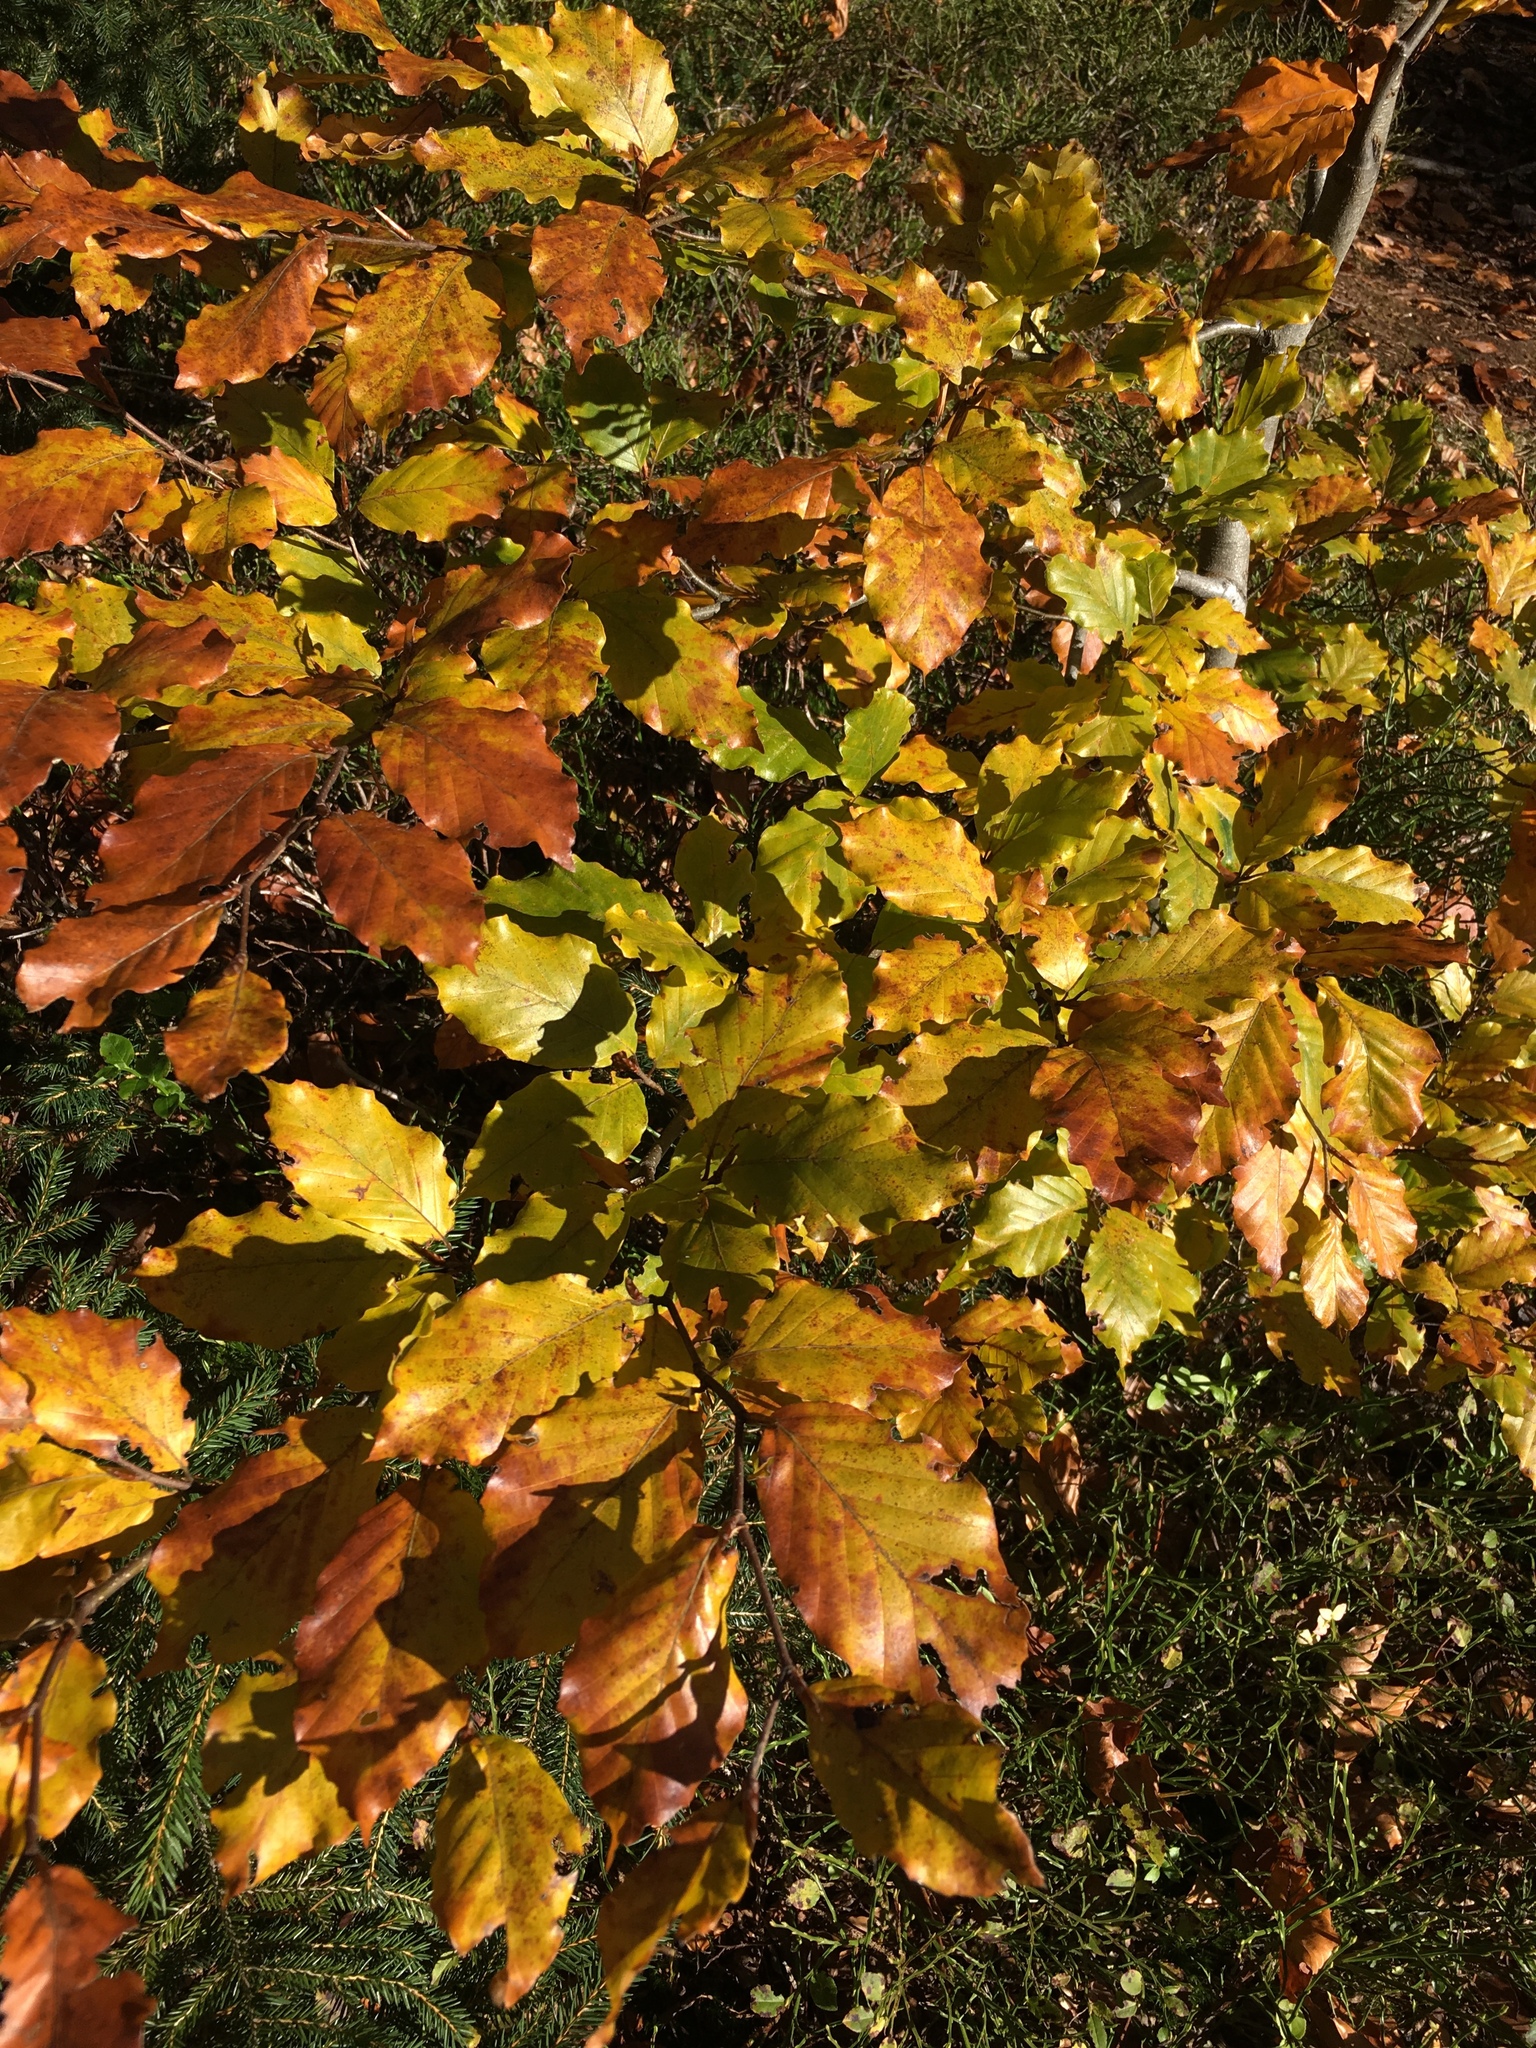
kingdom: Plantae
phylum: Tracheophyta
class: Magnoliopsida
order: Fagales
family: Fagaceae
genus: Fagus
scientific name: Fagus sylvatica
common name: Beech
